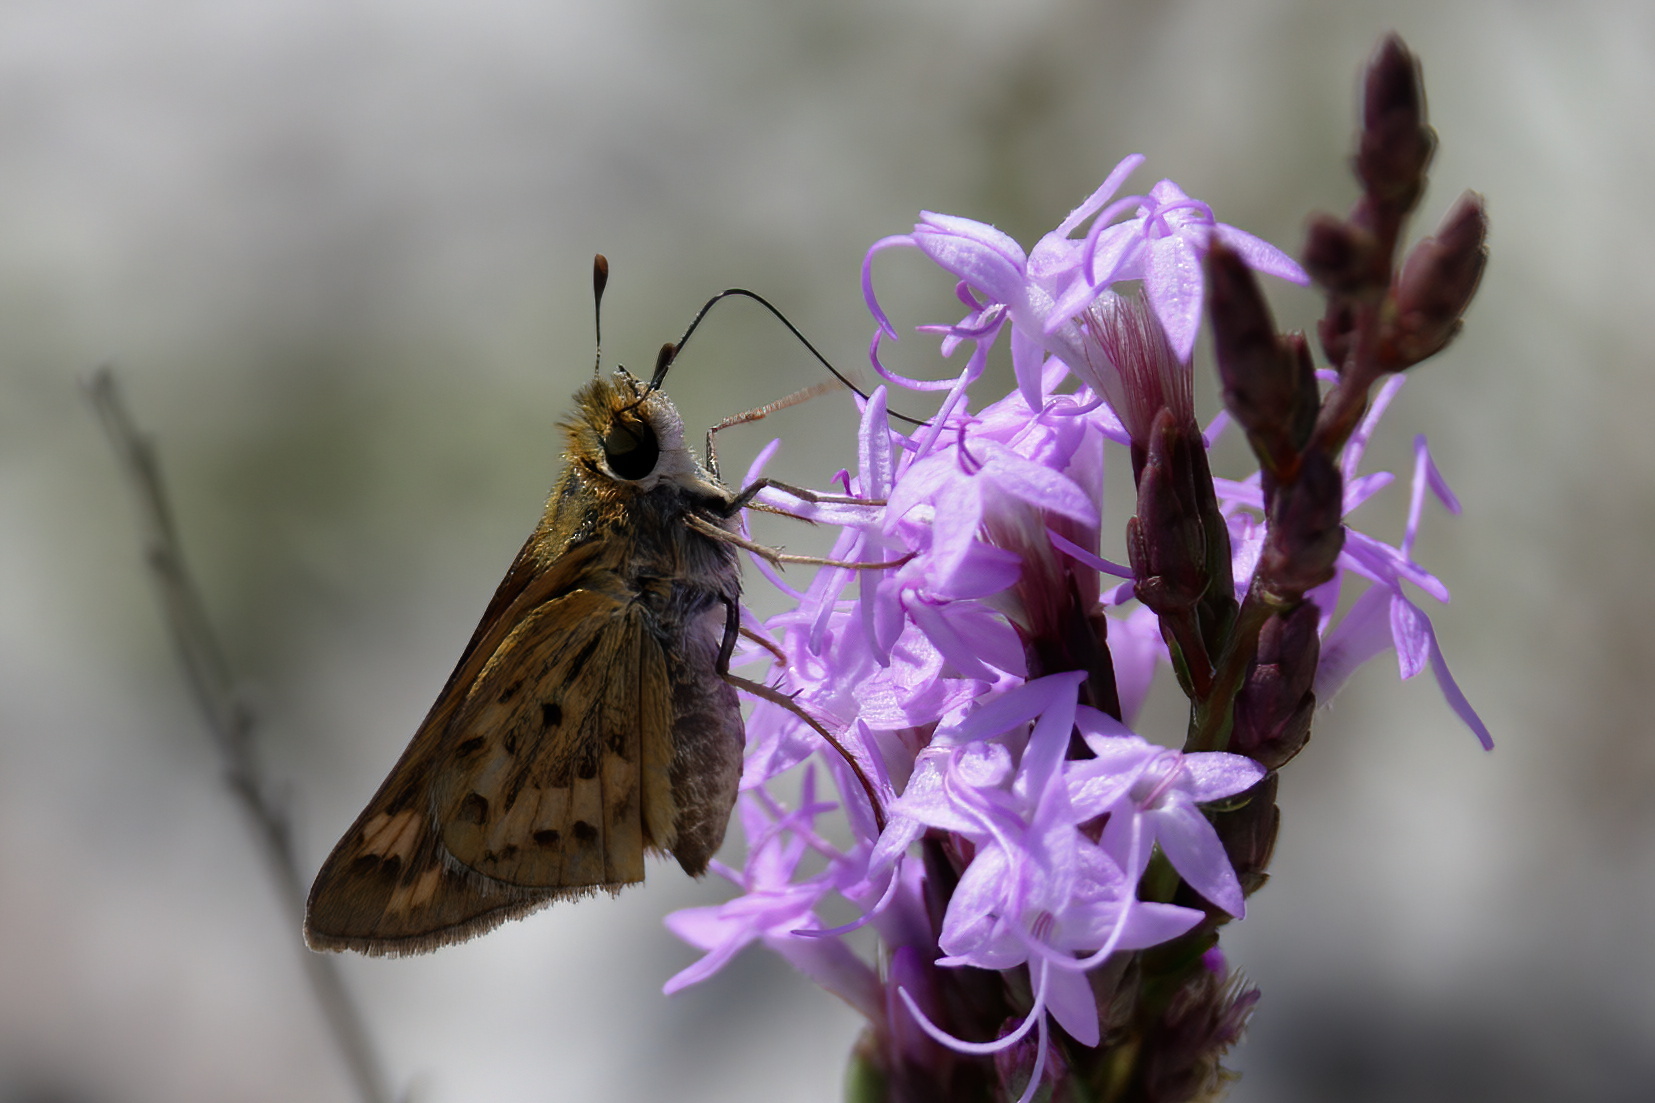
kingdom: Animalia
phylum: Arthropoda
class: Insecta
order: Lepidoptera
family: Hesperiidae
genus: Hylephila
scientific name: Hylephila phyleus
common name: Fiery skipper
